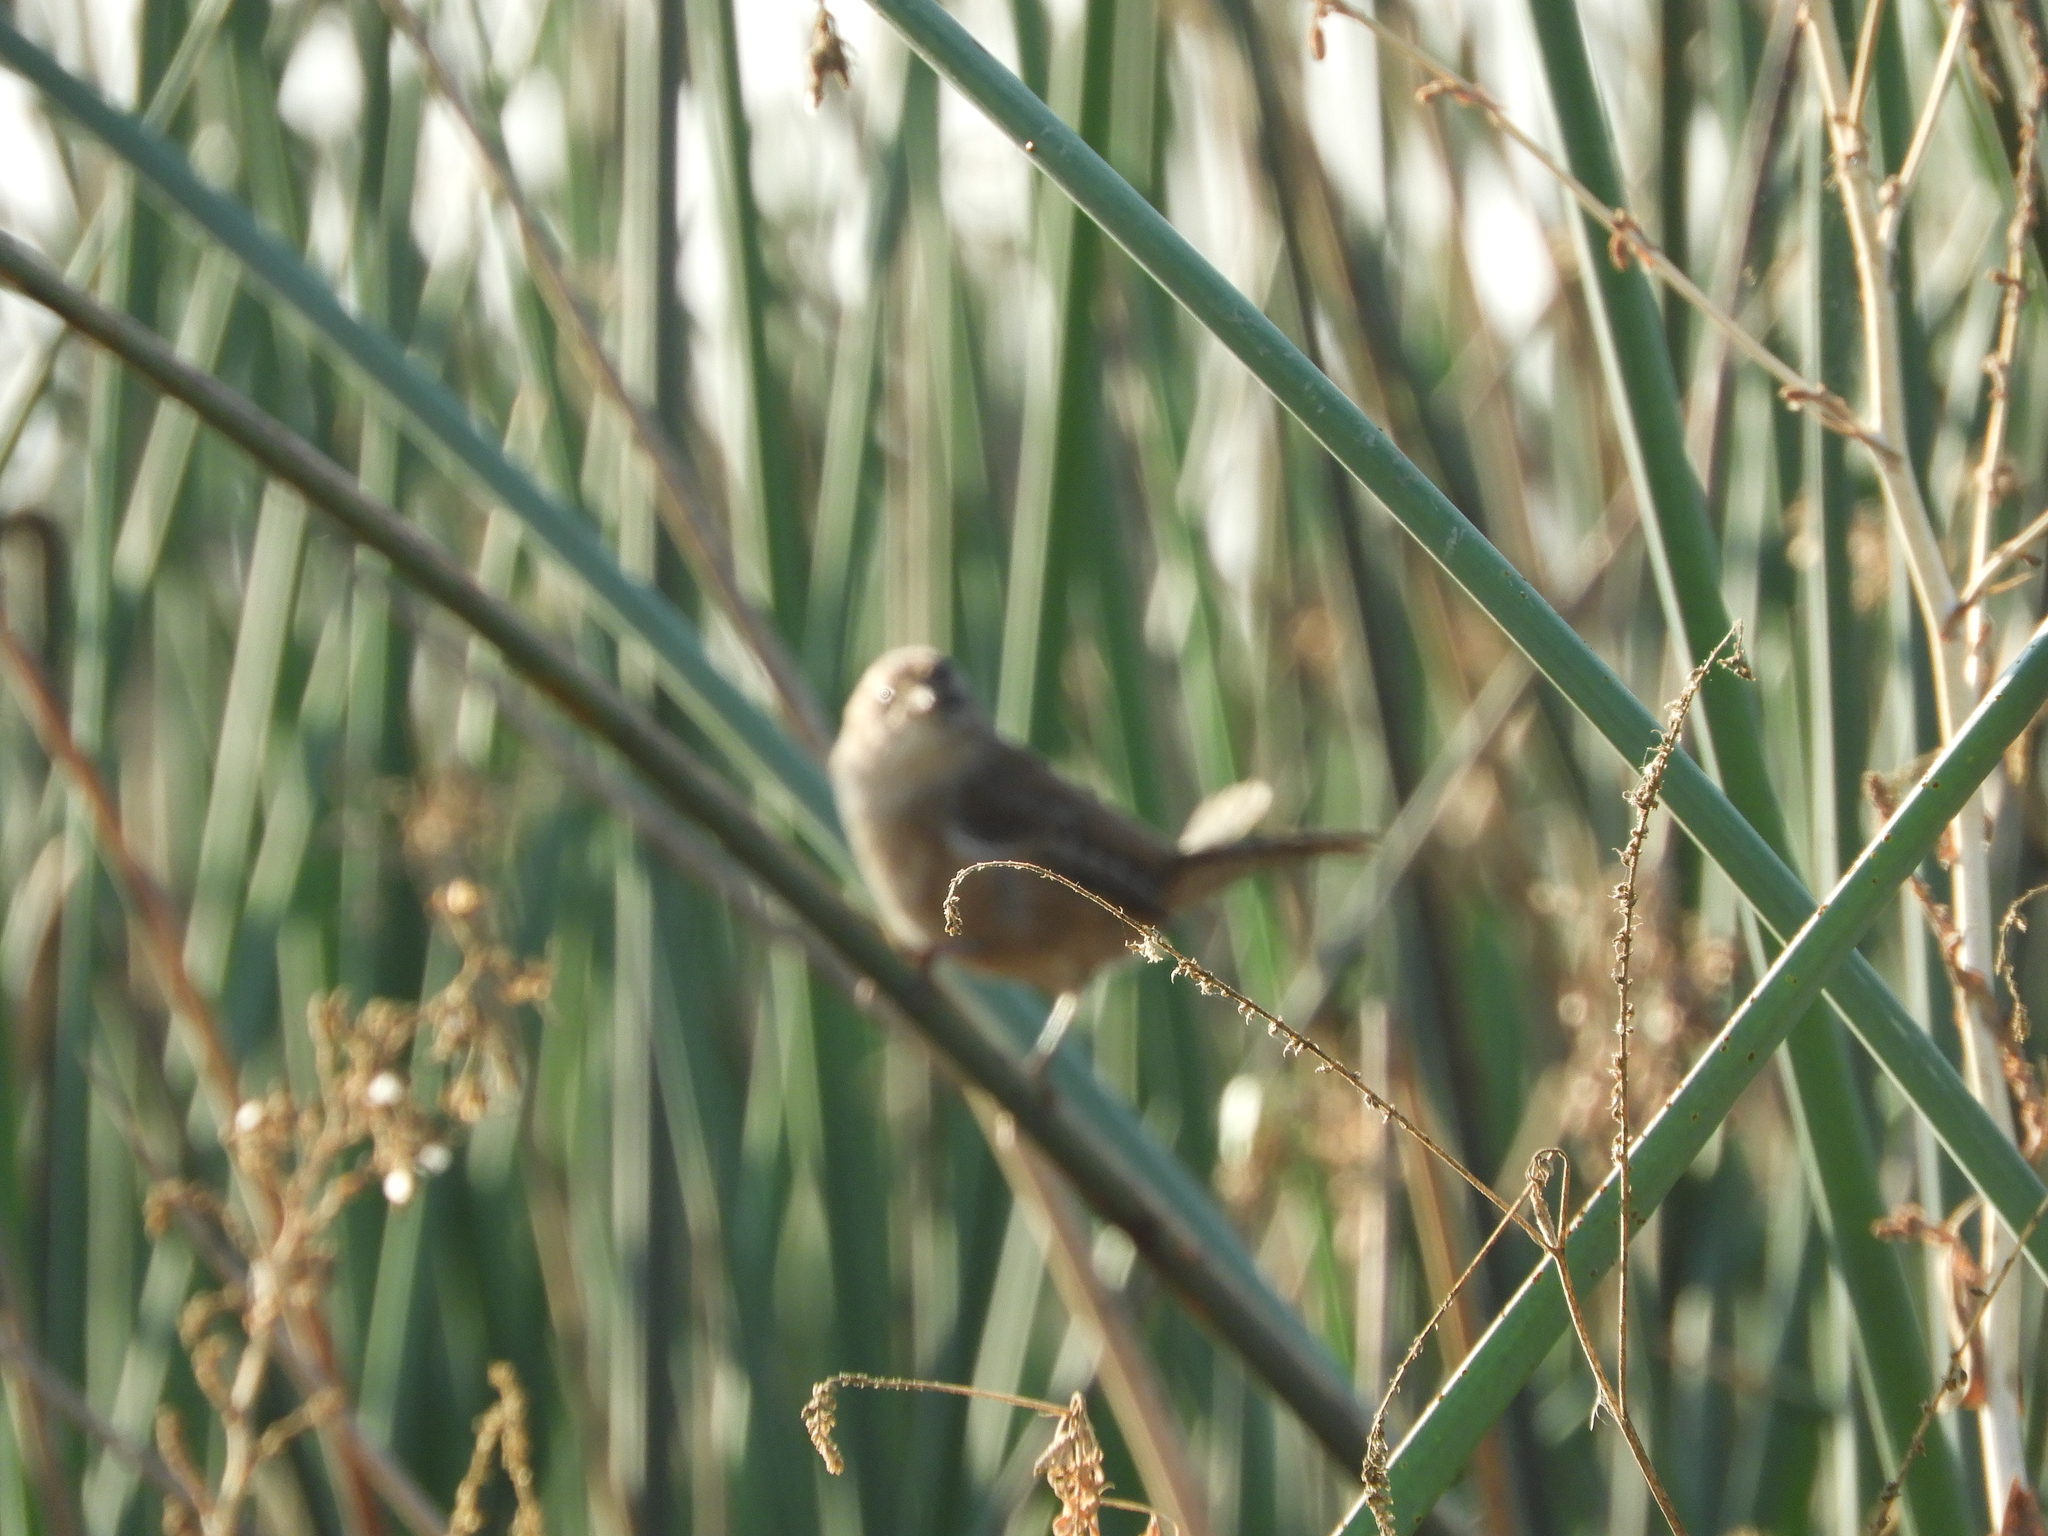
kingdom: Animalia
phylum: Chordata
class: Aves
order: Passeriformes
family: Troglodytidae
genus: Cistothorus
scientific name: Cistothorus palustris
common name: Marsh wren
